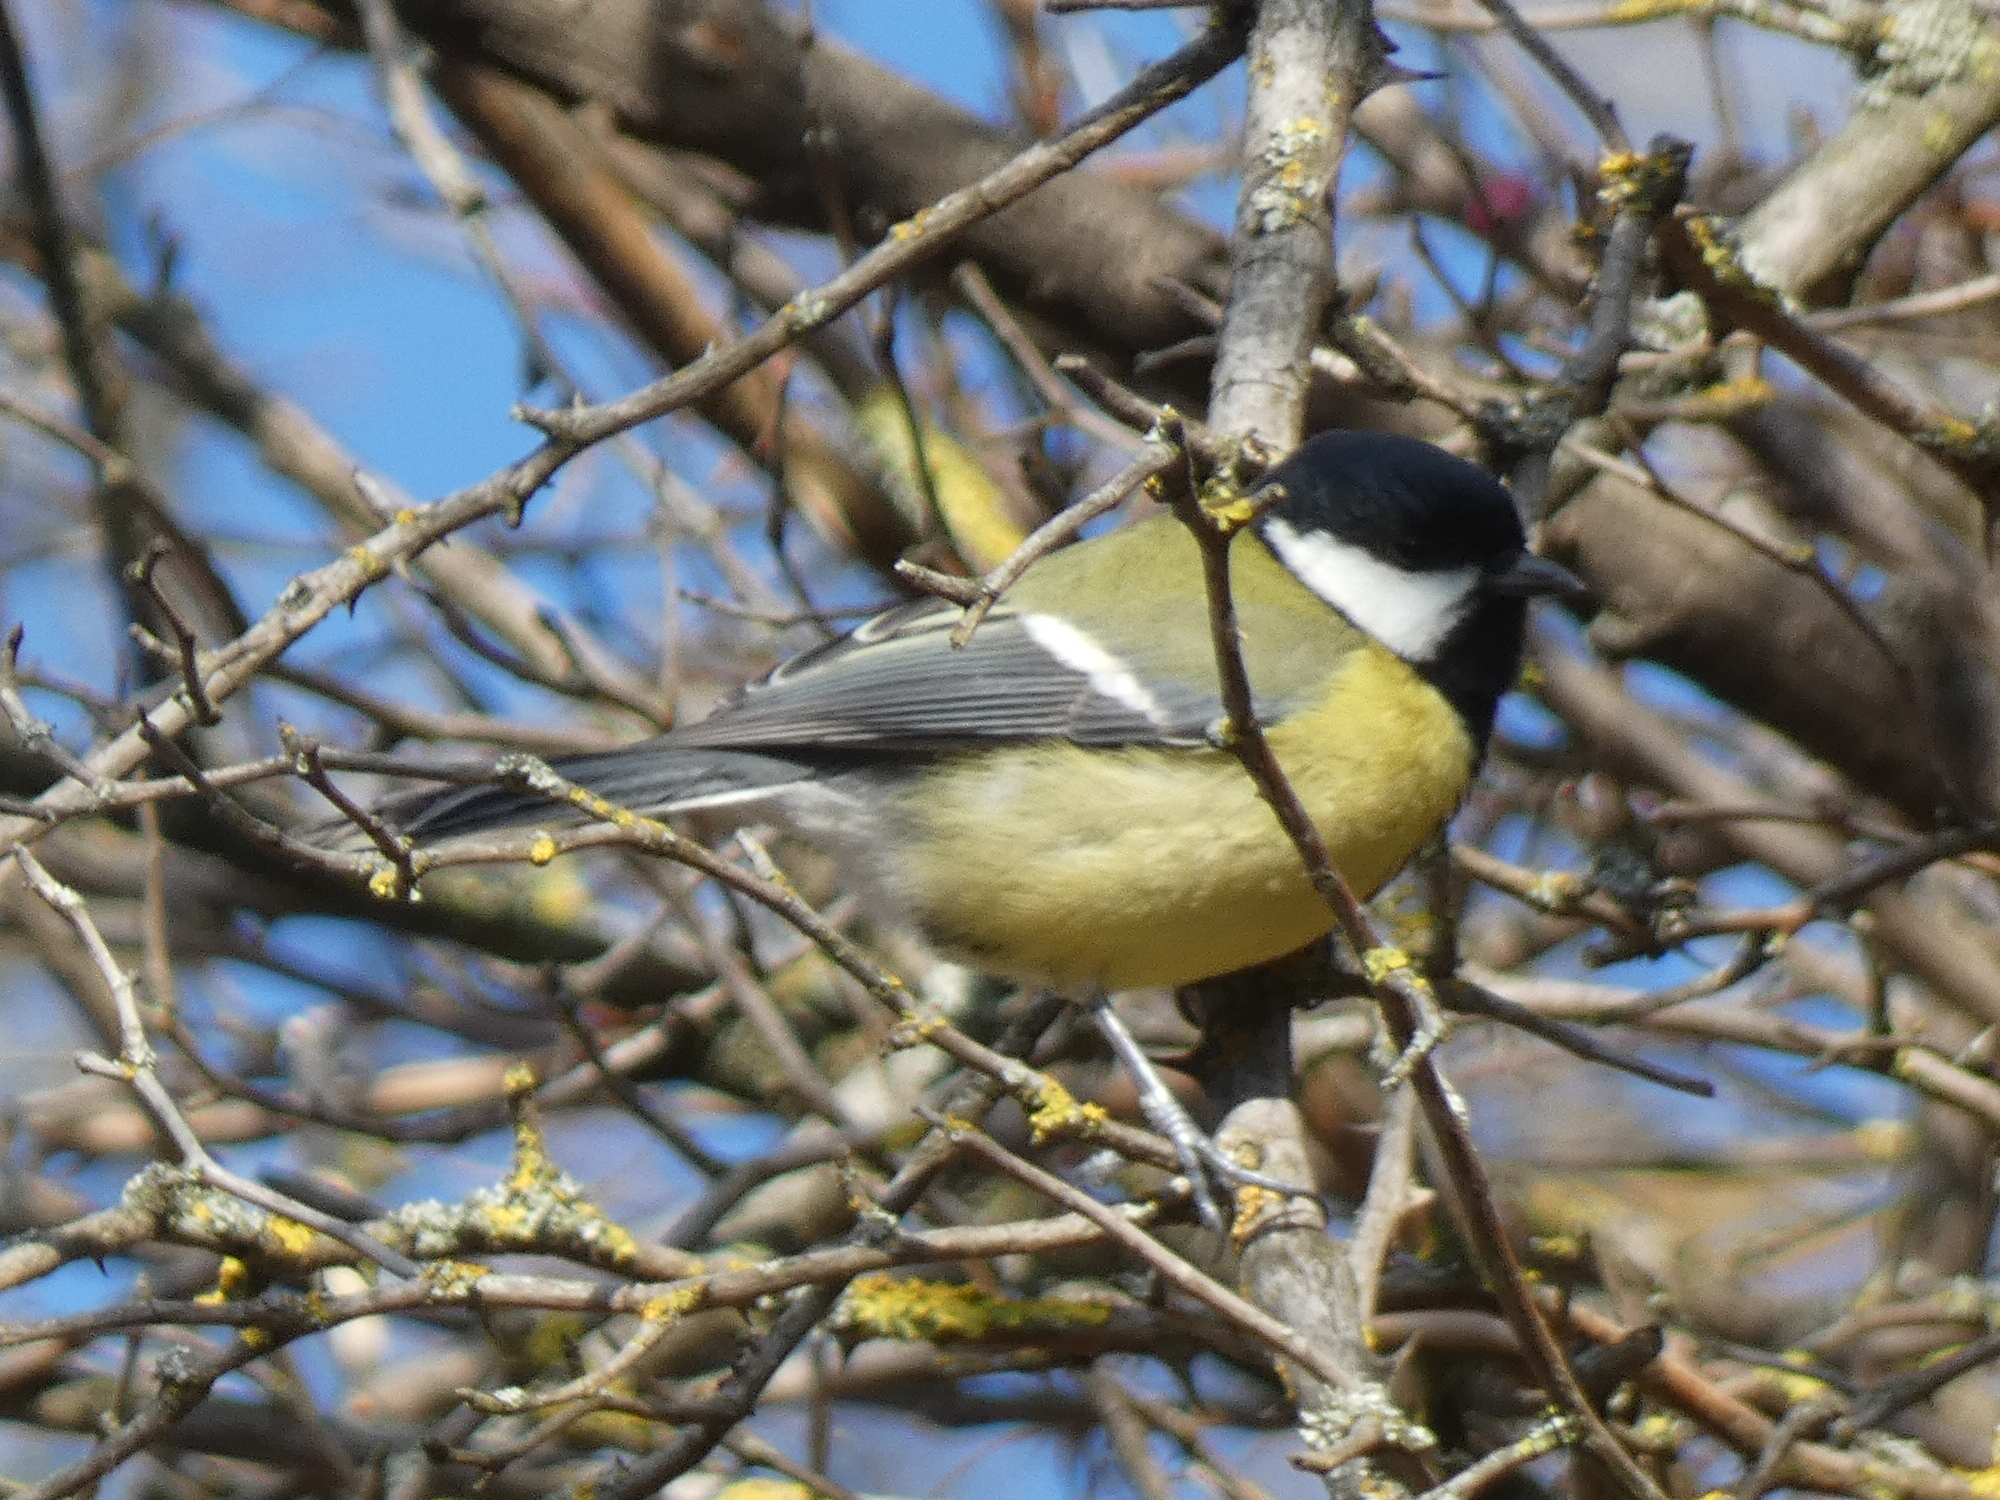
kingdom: Animalia
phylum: Chordata
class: Aves
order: Passeriformes
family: Paridae
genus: Parus
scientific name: Parus major
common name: Great tit
